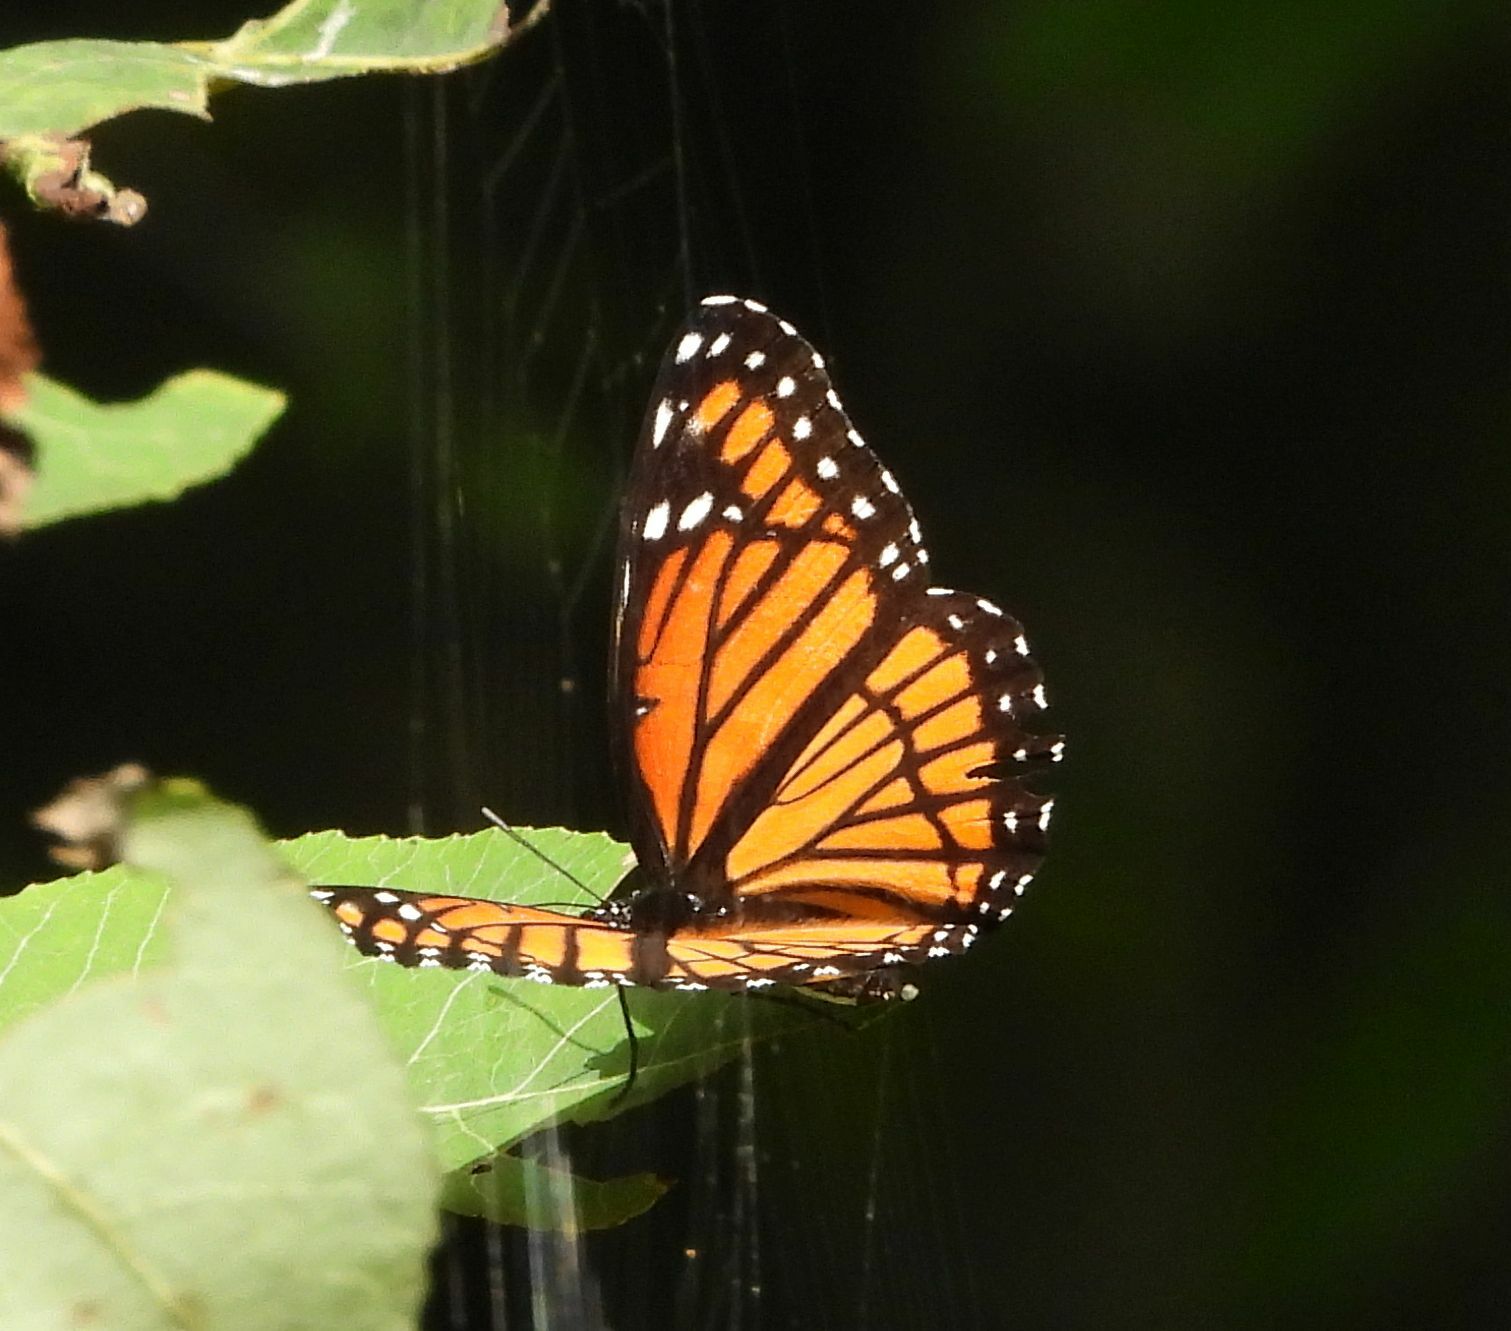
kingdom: Animalia
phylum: Arthropoda
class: Insecta
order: Lepidoptera
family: Nymphalidae
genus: Limenitis
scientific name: Limenitis archippus
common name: Viceroy
